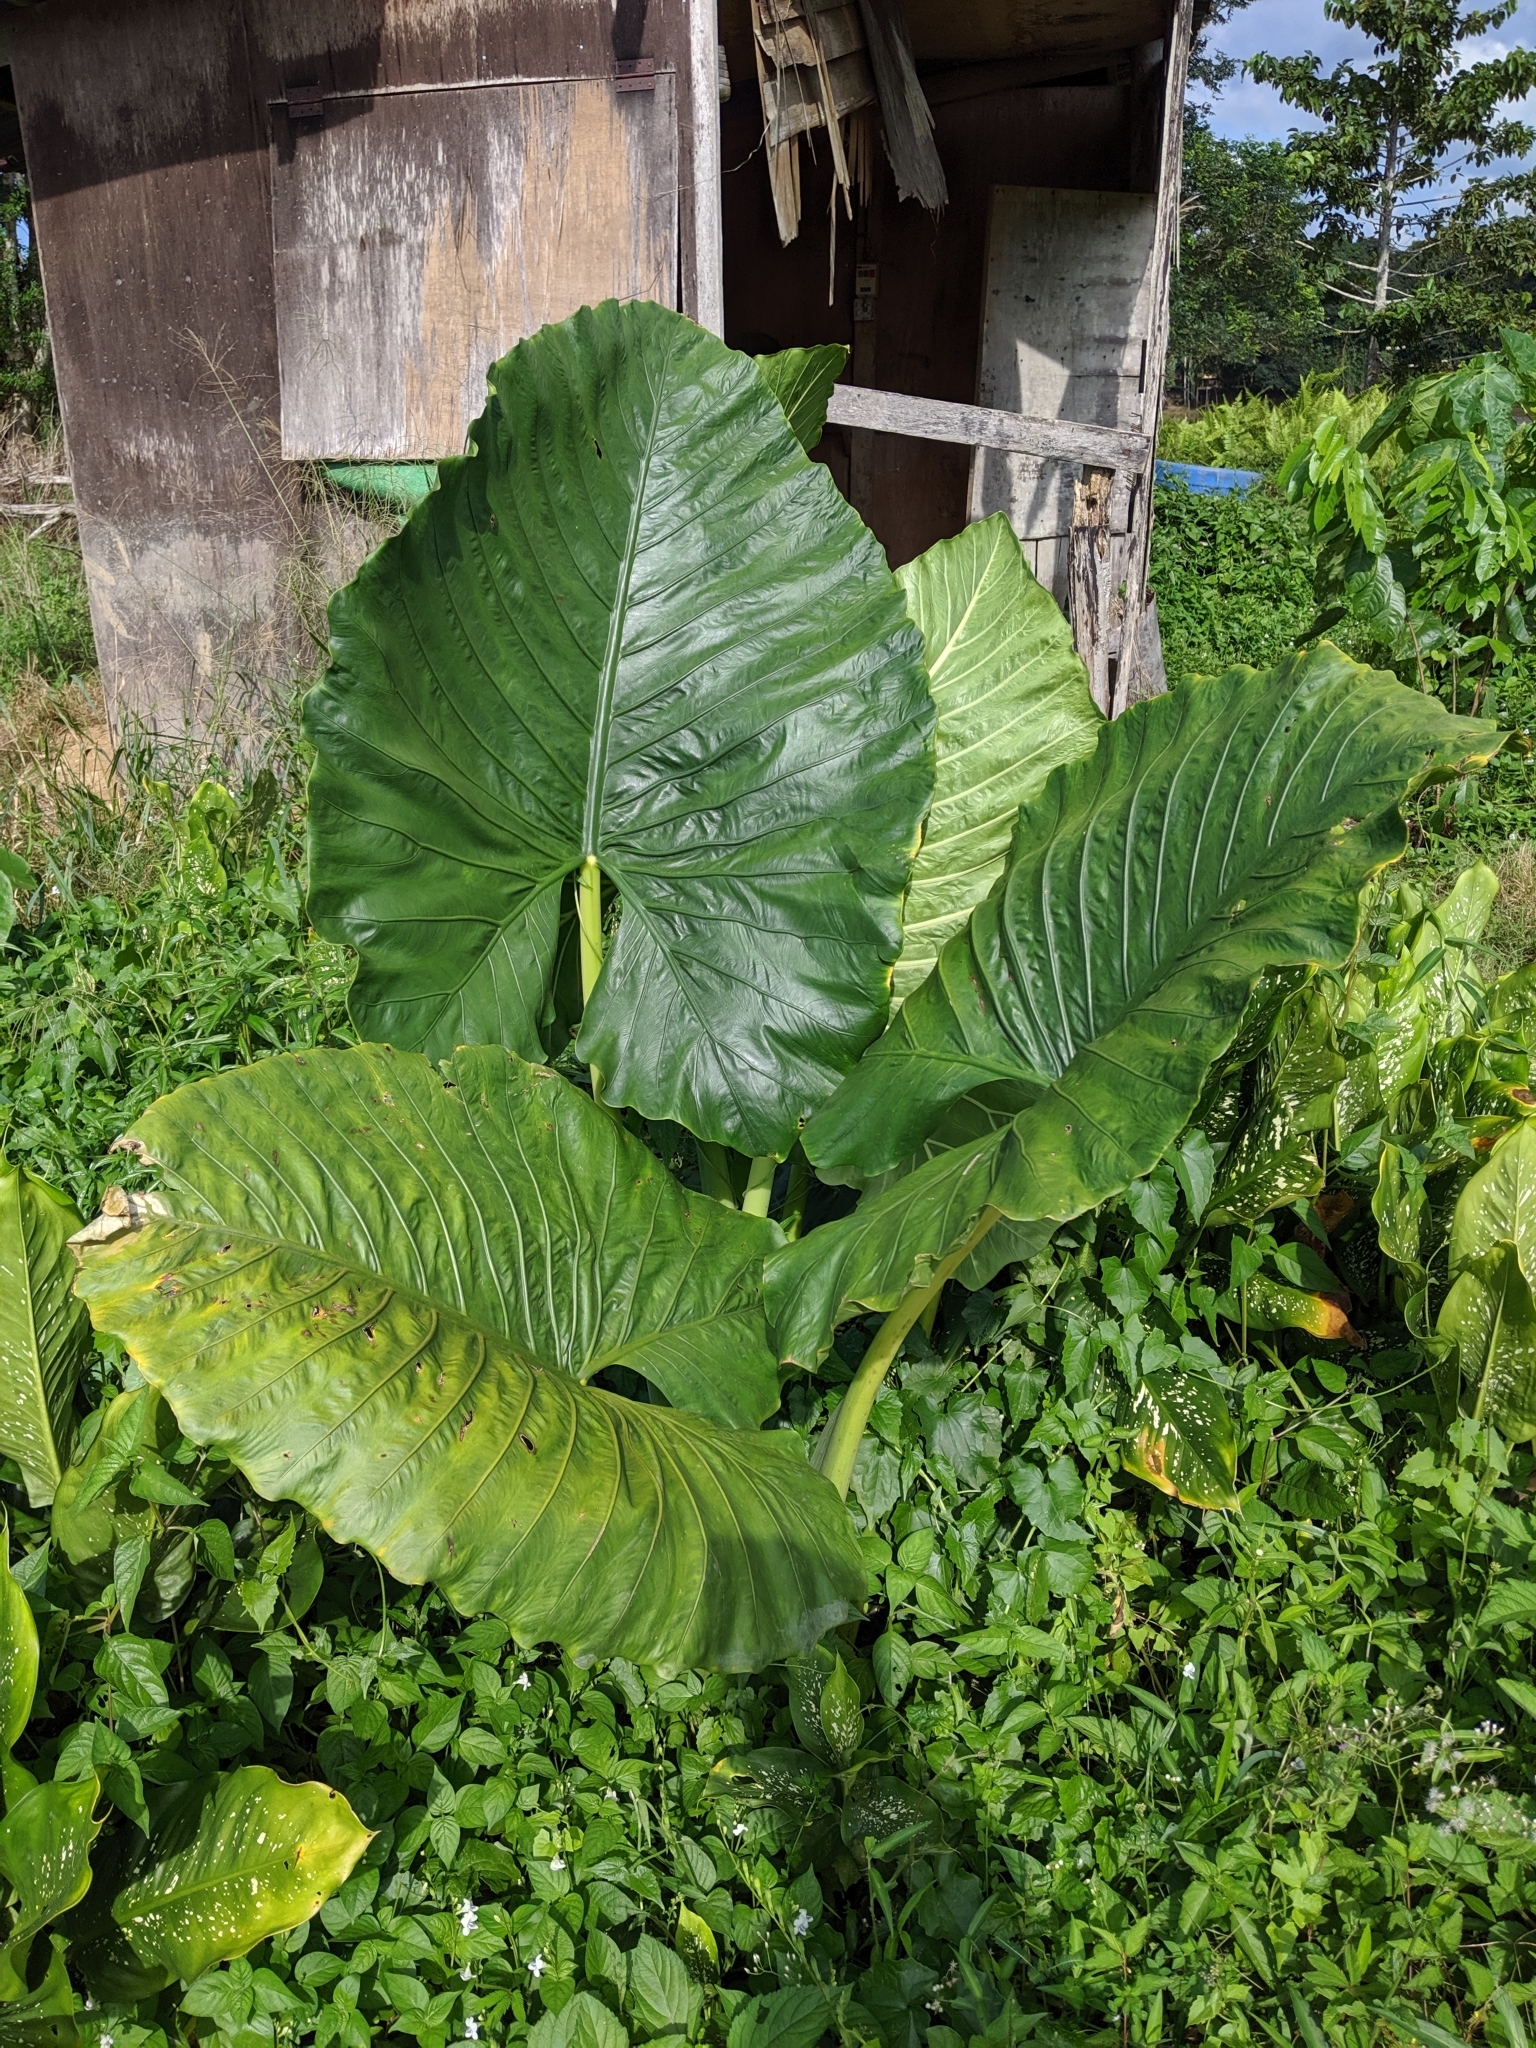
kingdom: Plantae
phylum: Tracheophyta
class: Liliopsida
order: Alismatales
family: Araceae
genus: Alocasia
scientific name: Alocasia macrorrhizos
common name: Giant taro
